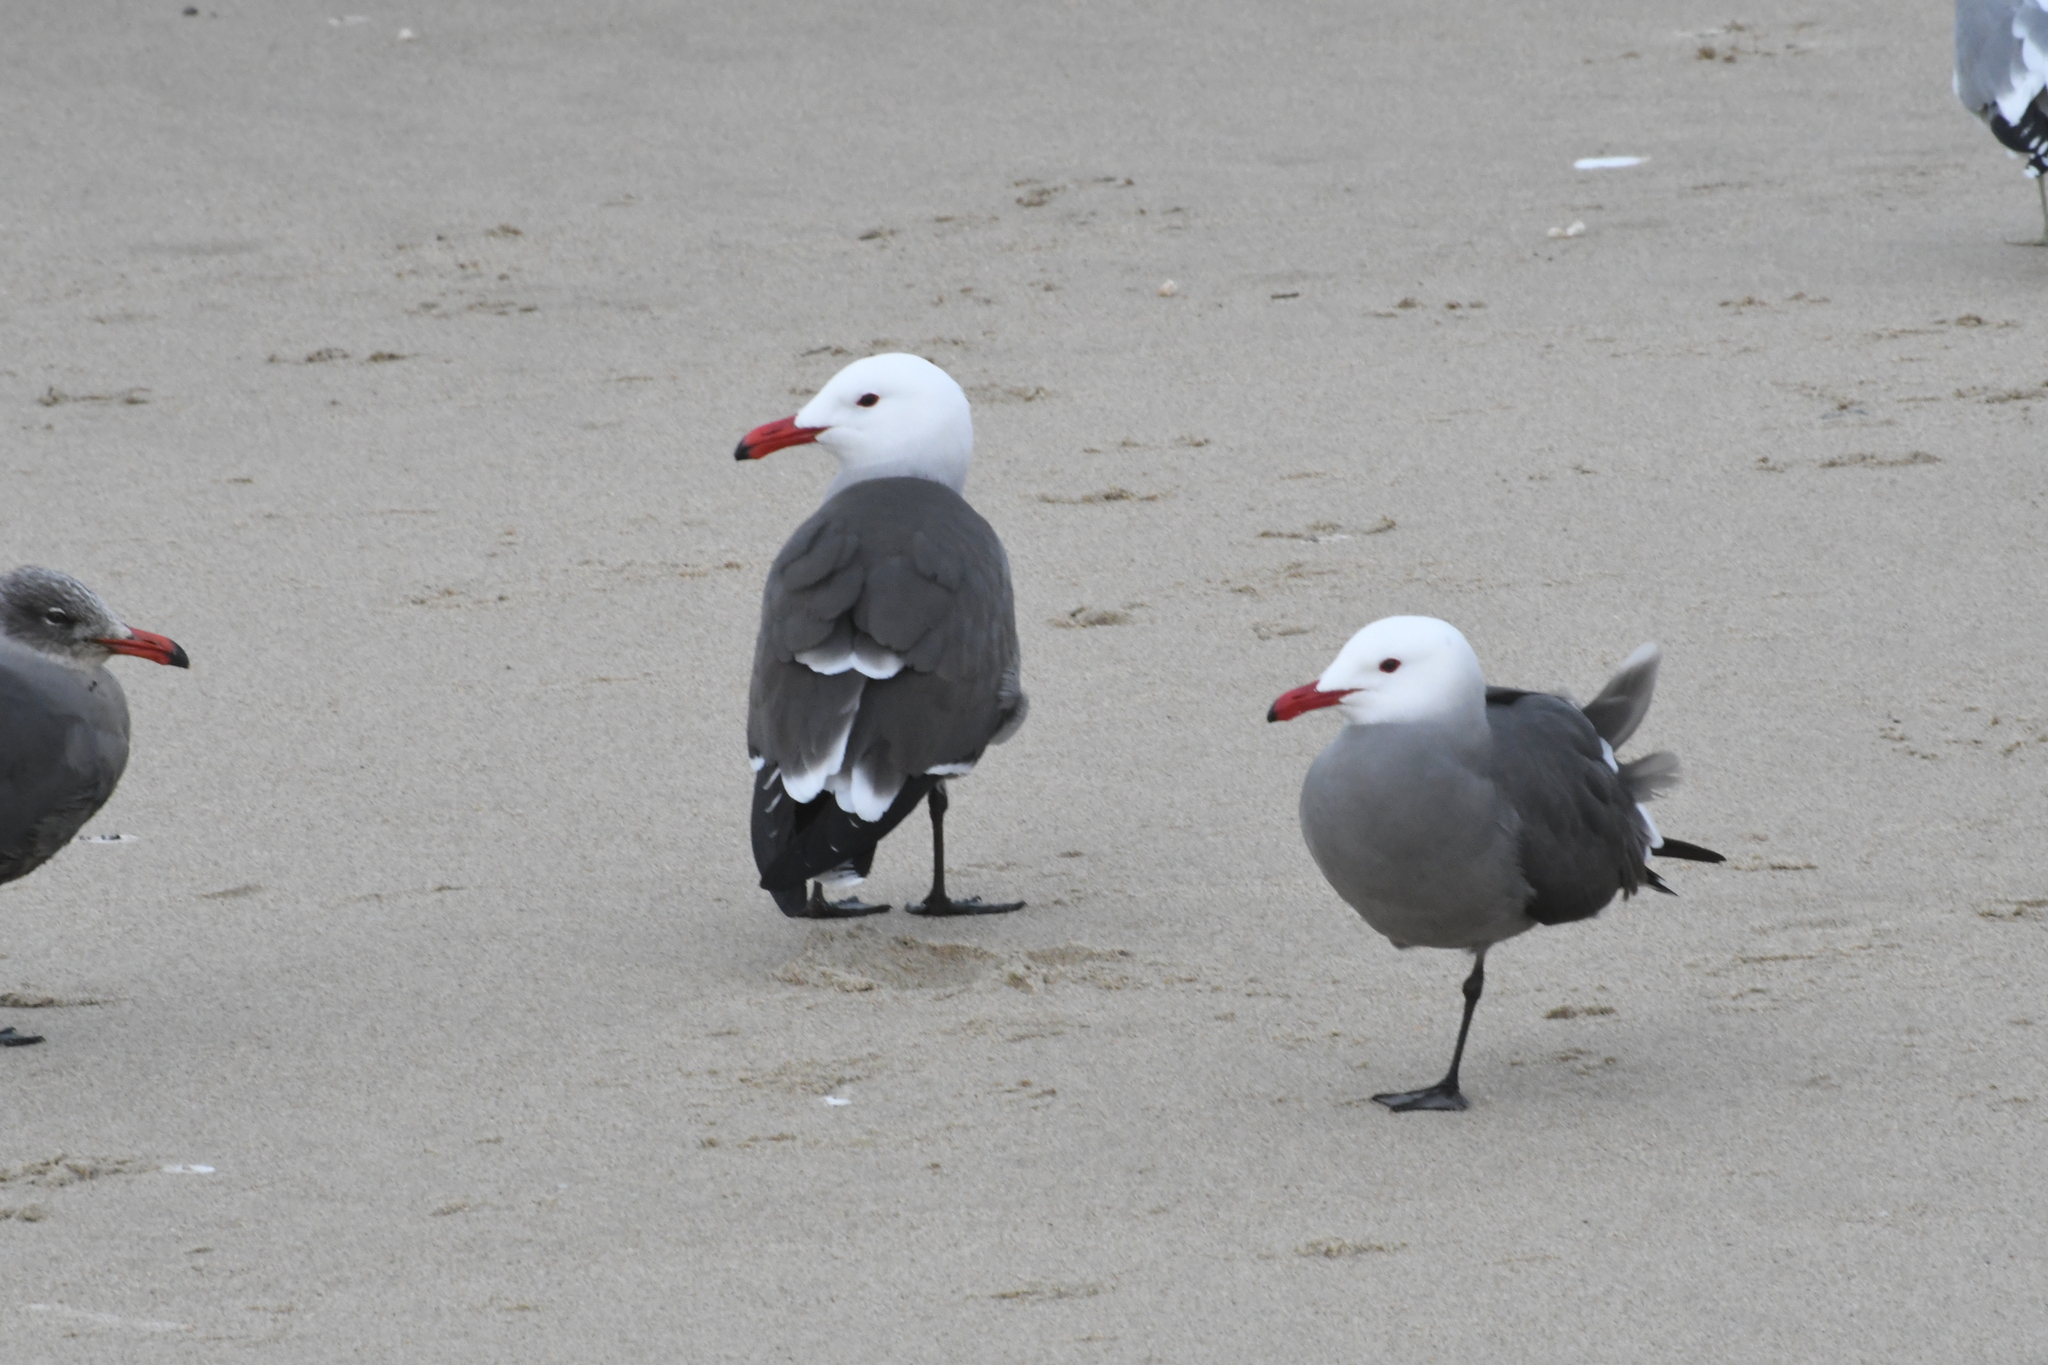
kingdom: Animalia
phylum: Chordata
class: Aves
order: Charadriiformes
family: Laridae
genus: Larus
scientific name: Larus heermanni
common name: Heermann's gull
